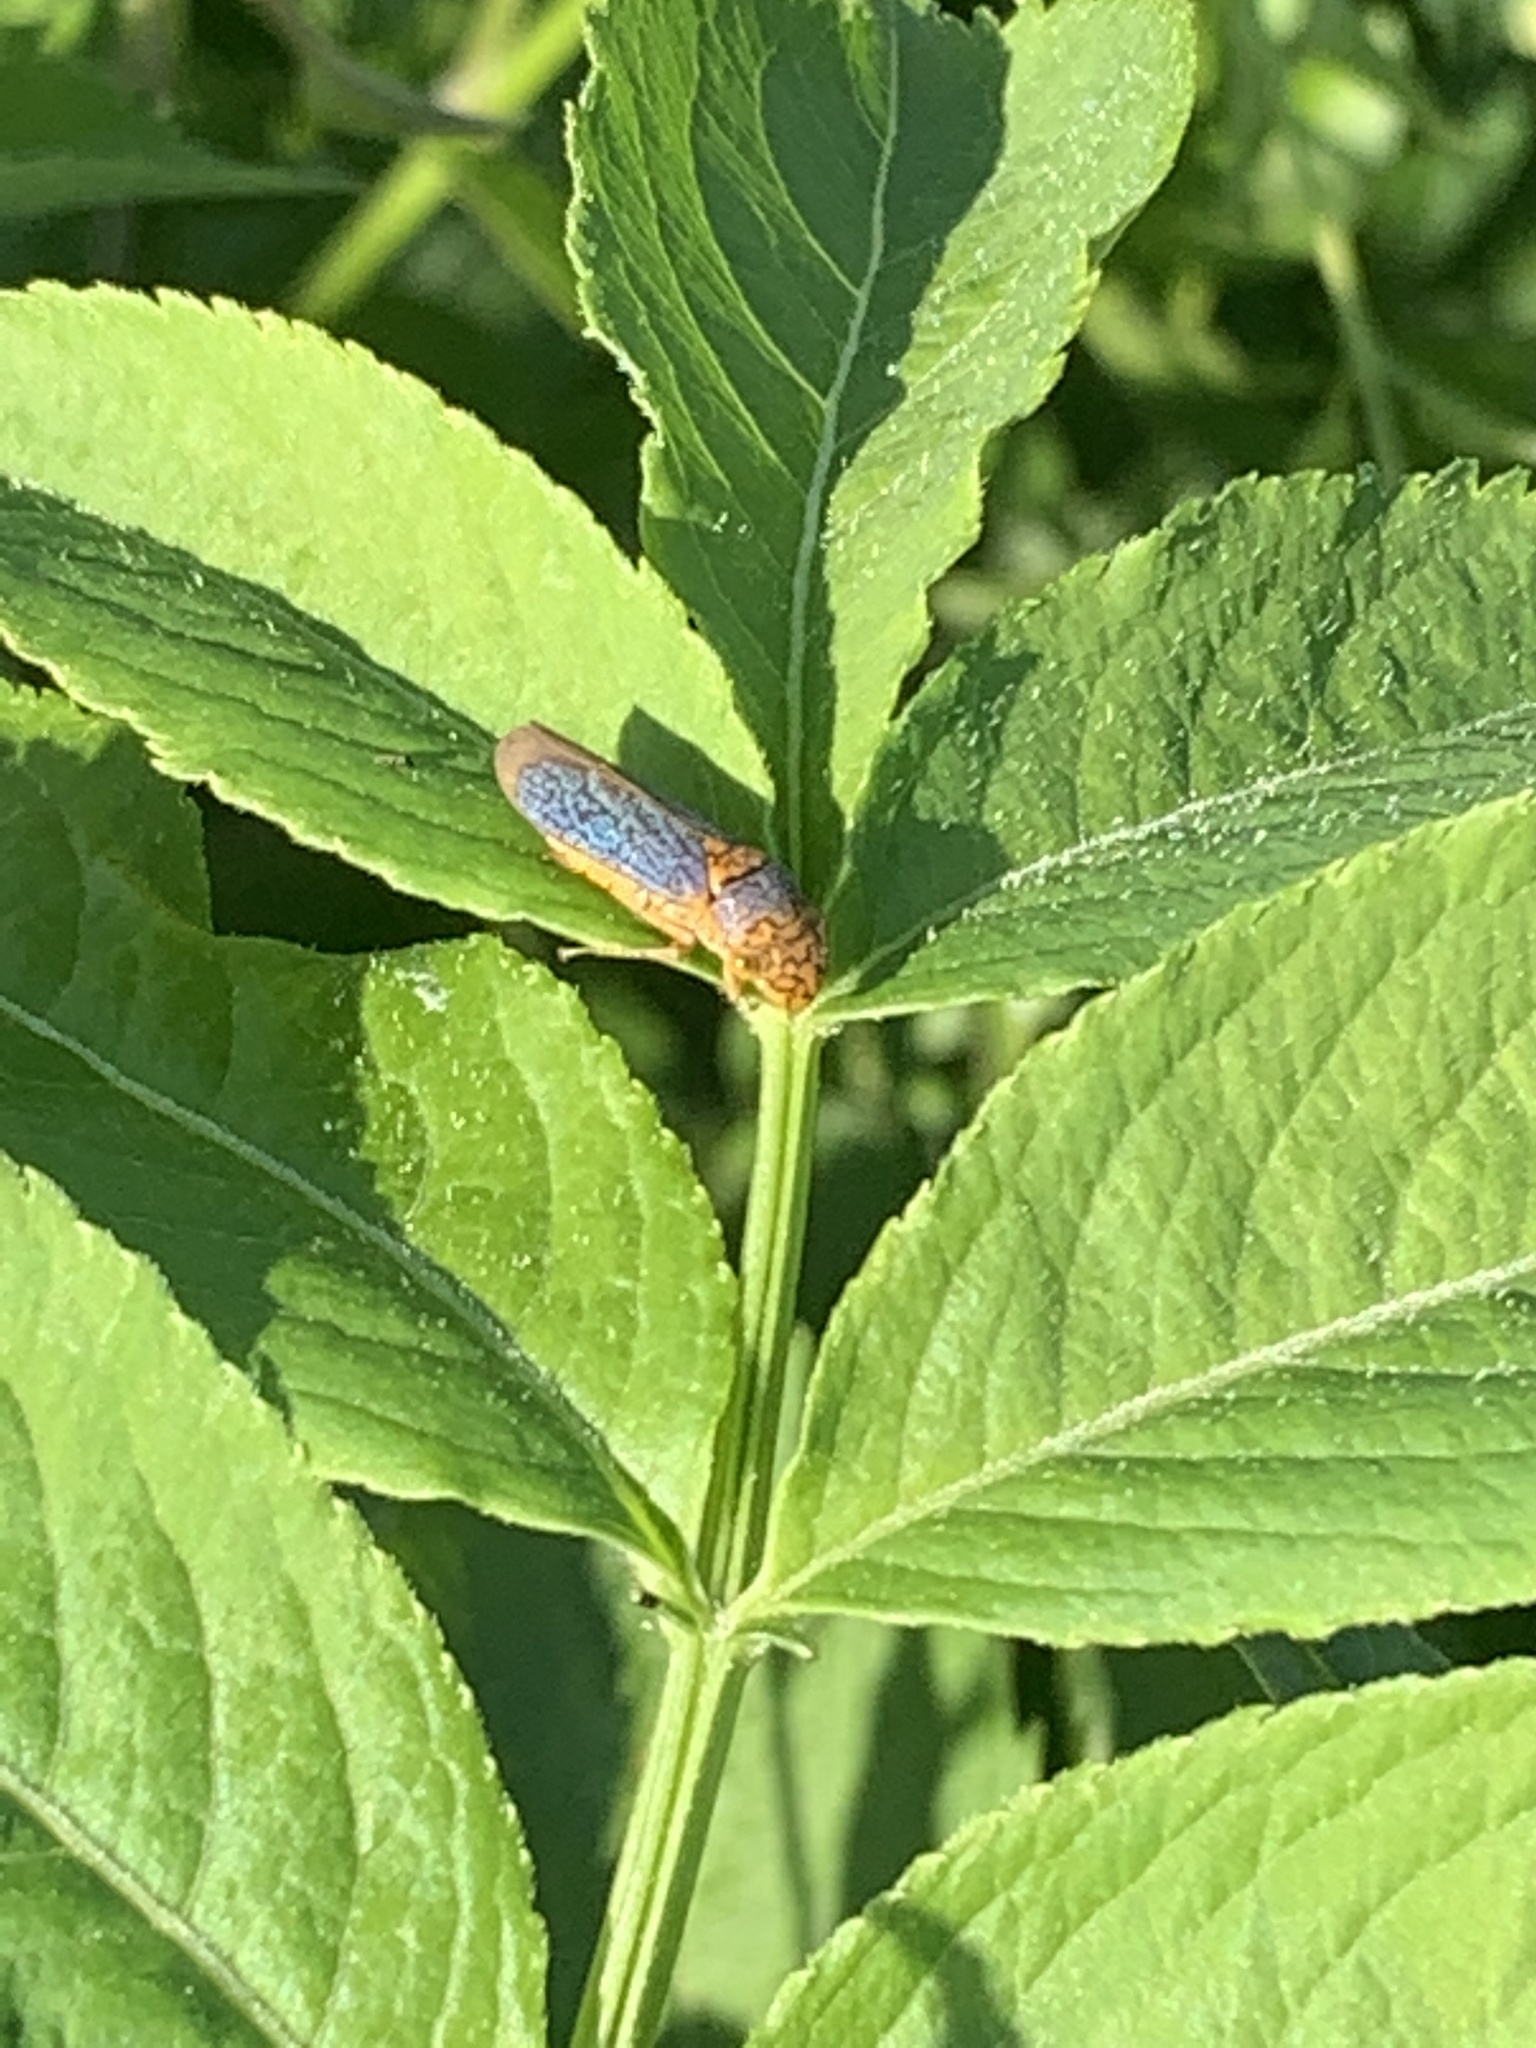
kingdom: Animalia
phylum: Arthropoda
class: Insecta
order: Hemiptera
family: Cicadellidae
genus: Oncometopia
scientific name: Oncometopia orbona
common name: Broad-headed sharpshooter
